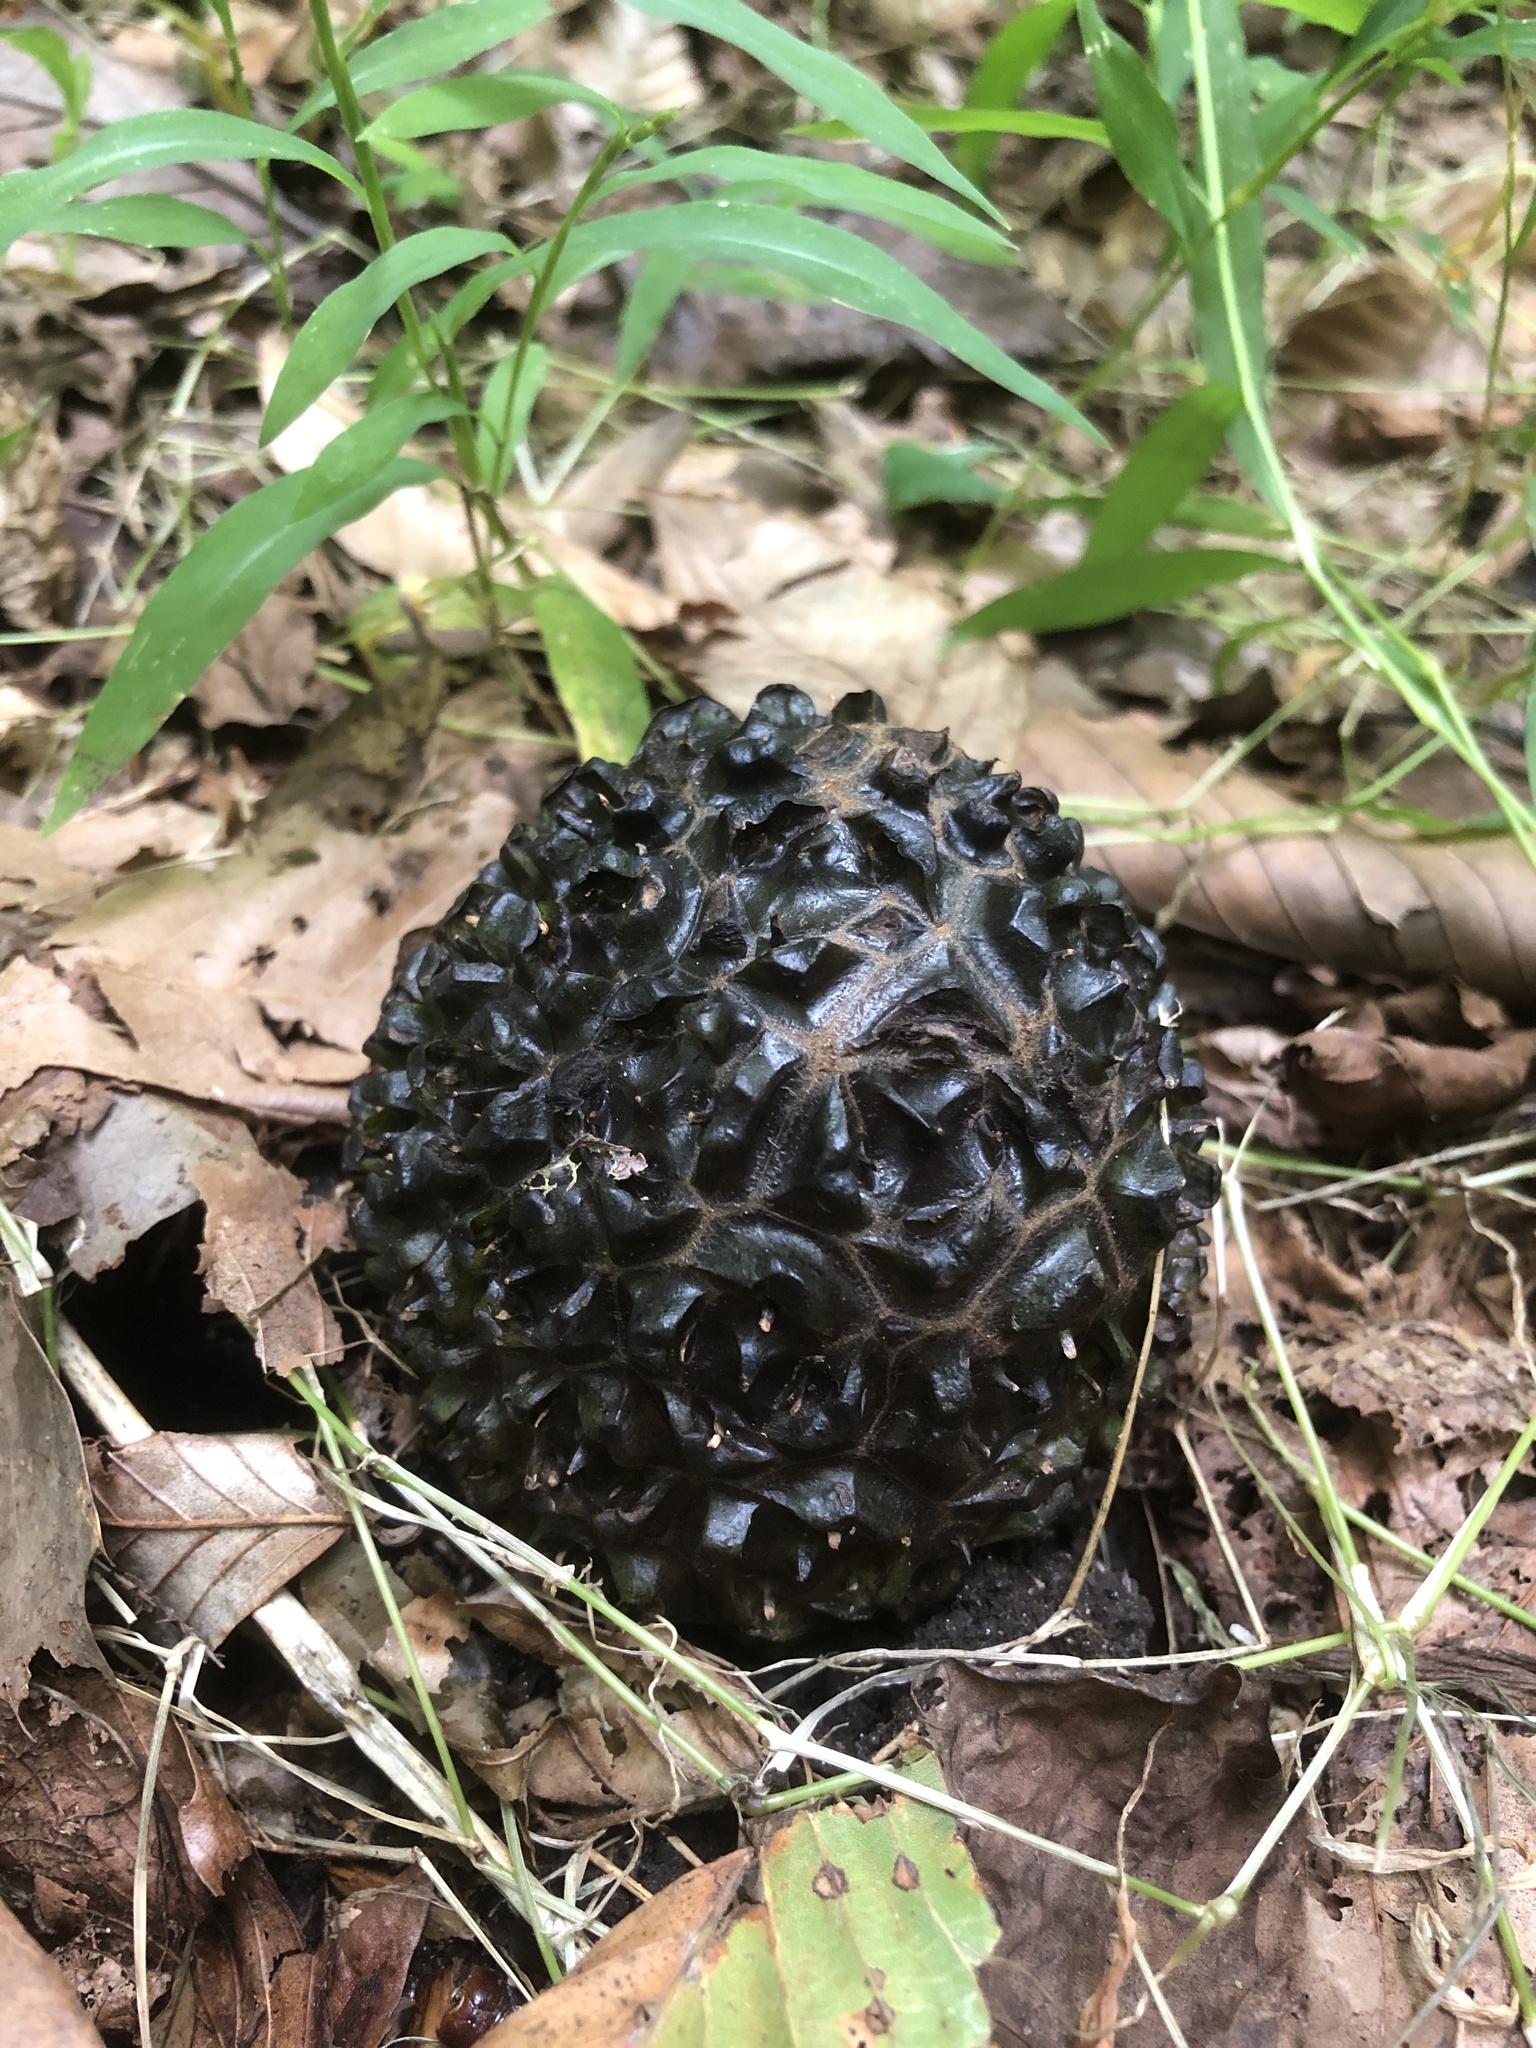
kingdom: Plantae
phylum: Tracheophyta
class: Liliopsida
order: Alismatales
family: Araceae
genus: Symplocarpus
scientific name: Symplocarpus foetidus
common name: Eastern skunk cabbage
